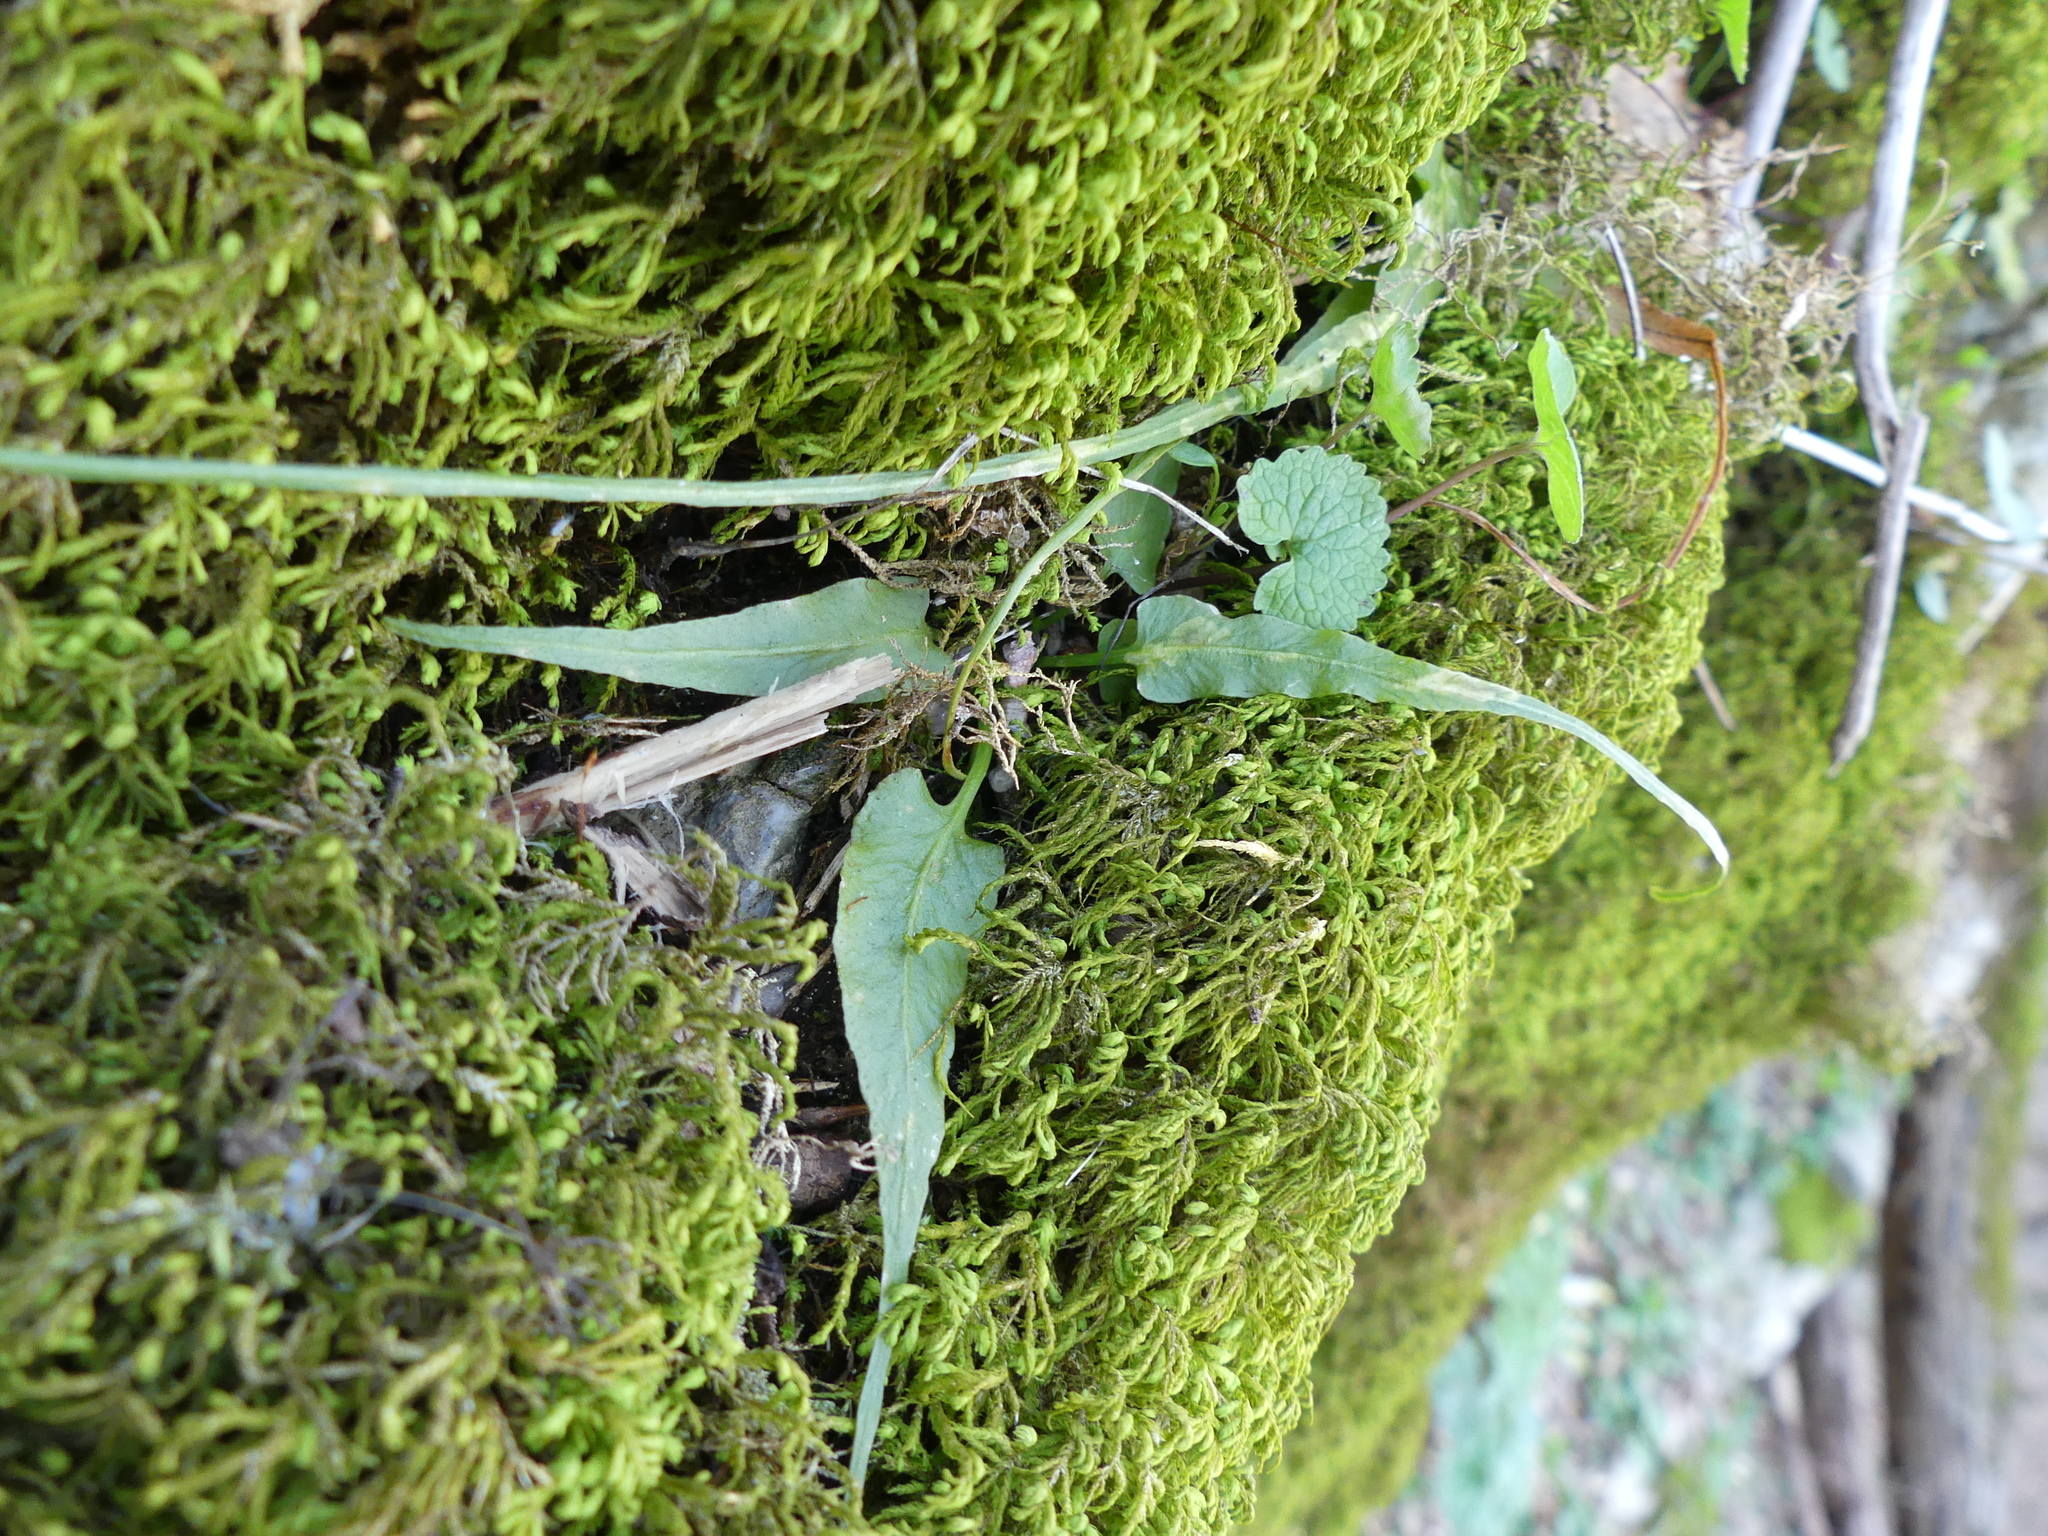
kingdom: Plantae
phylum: Tracheophyta
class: Polypodiopsida
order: Polypodiales
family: Aspleniaceae
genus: Asplenium
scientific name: Asplenium rhizophyllum
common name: Walking fern
